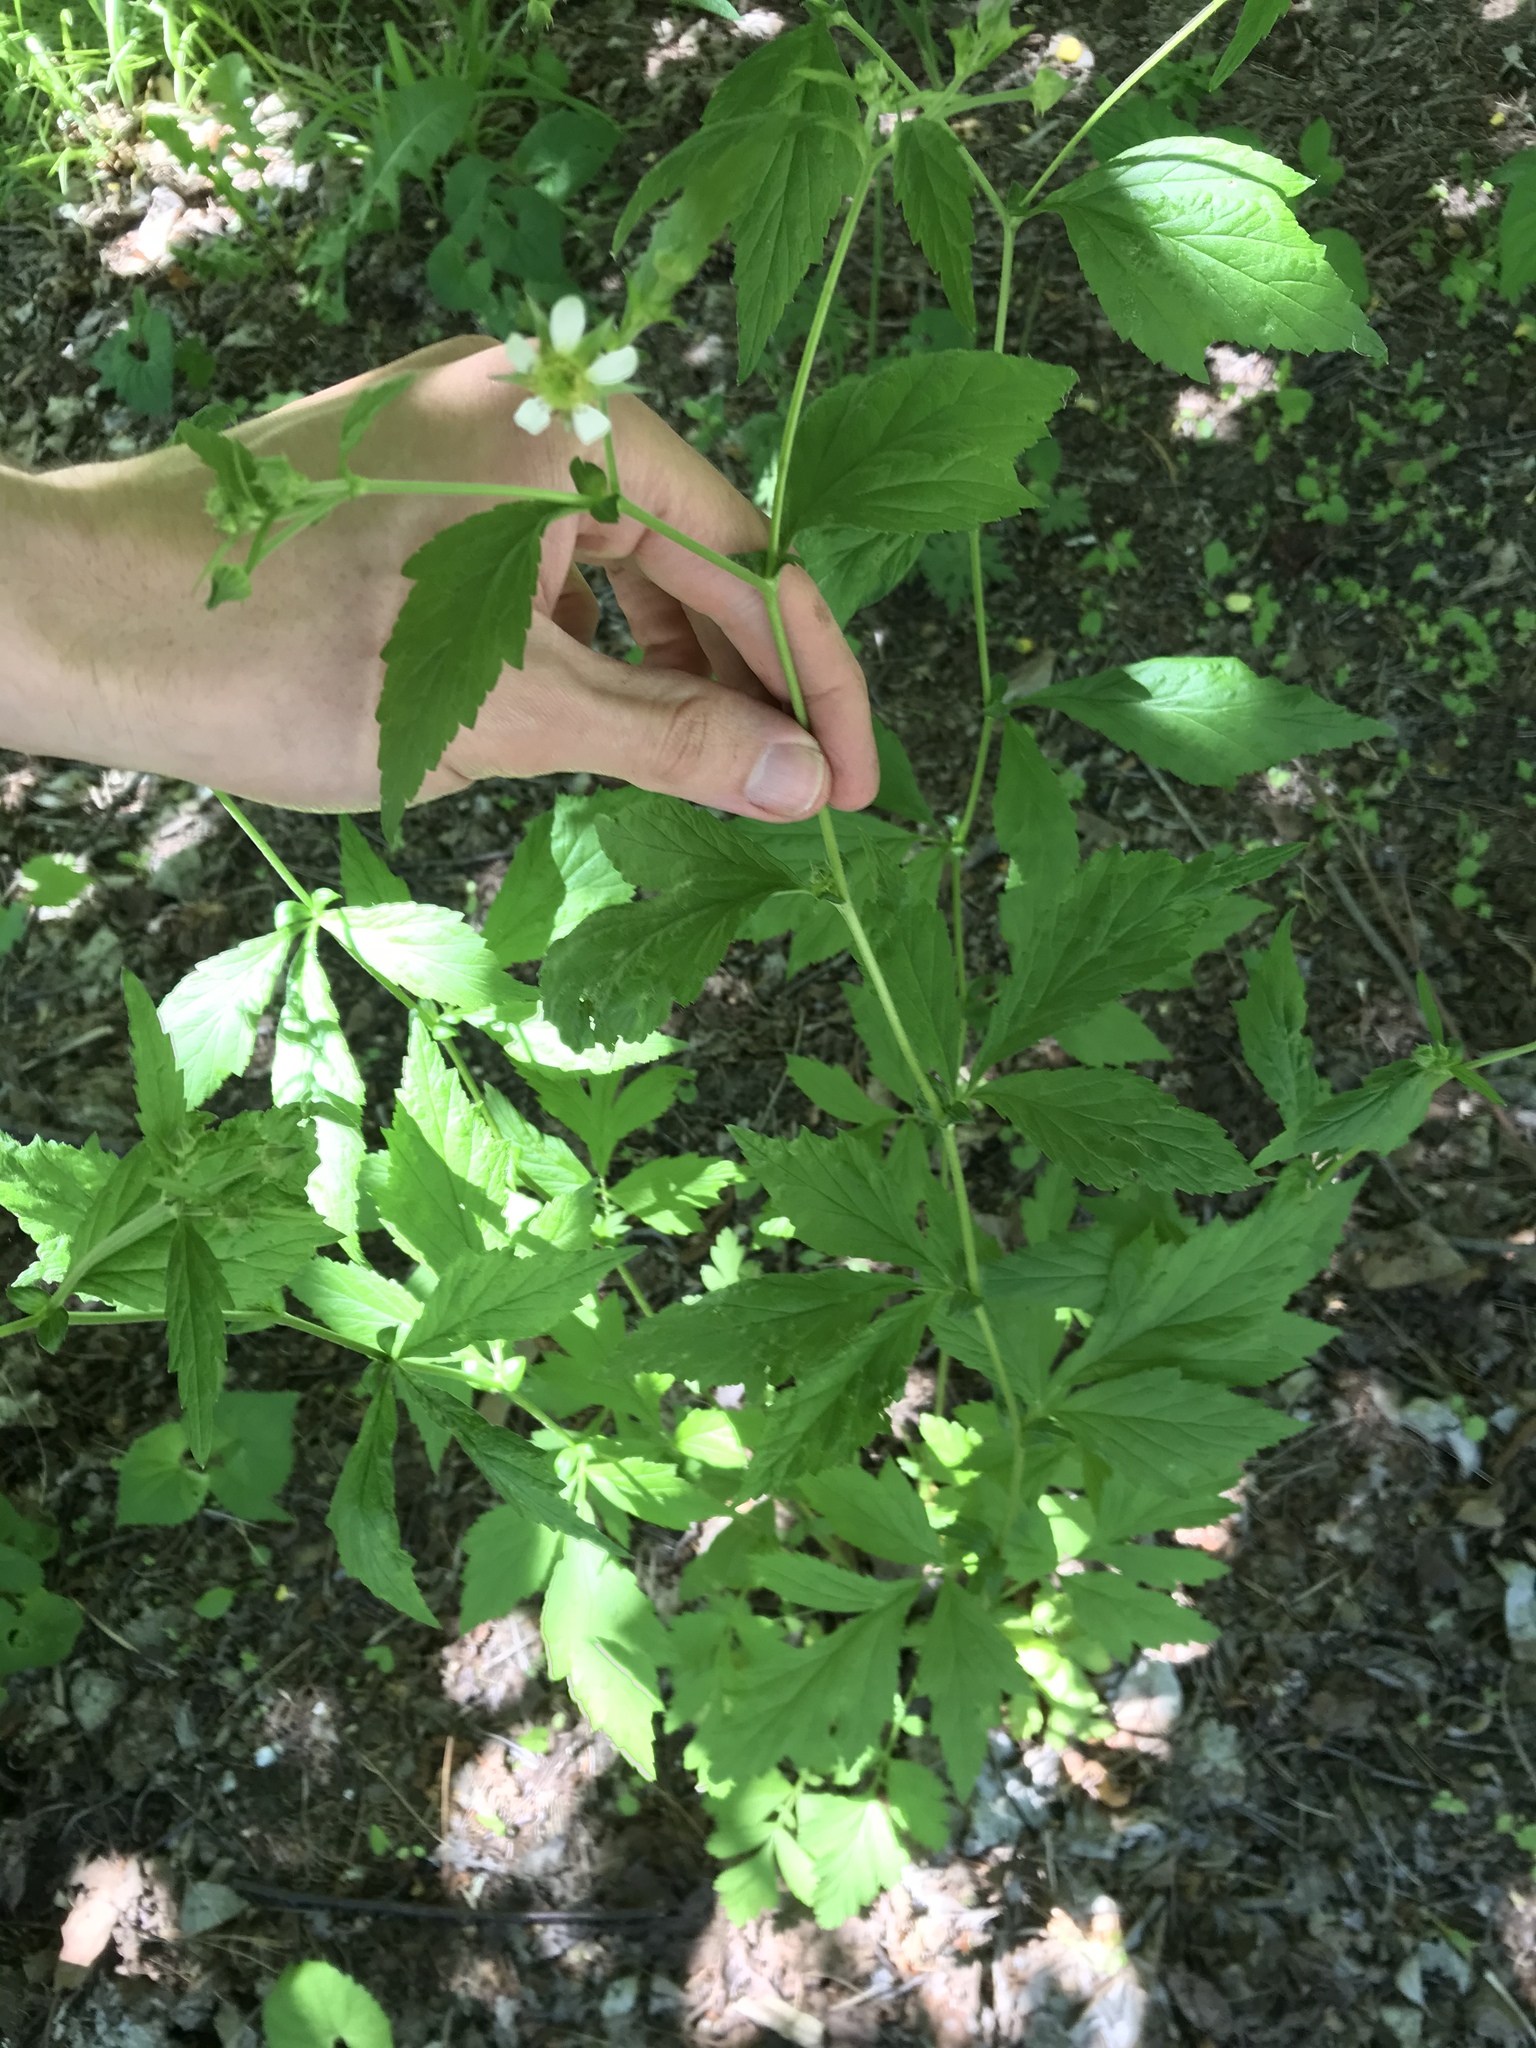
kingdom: Plantae
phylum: Tracheophyta
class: Magnoliopsida
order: Rosales
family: Rosaceae
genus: Geum
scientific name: Geum canadense
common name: White avens
